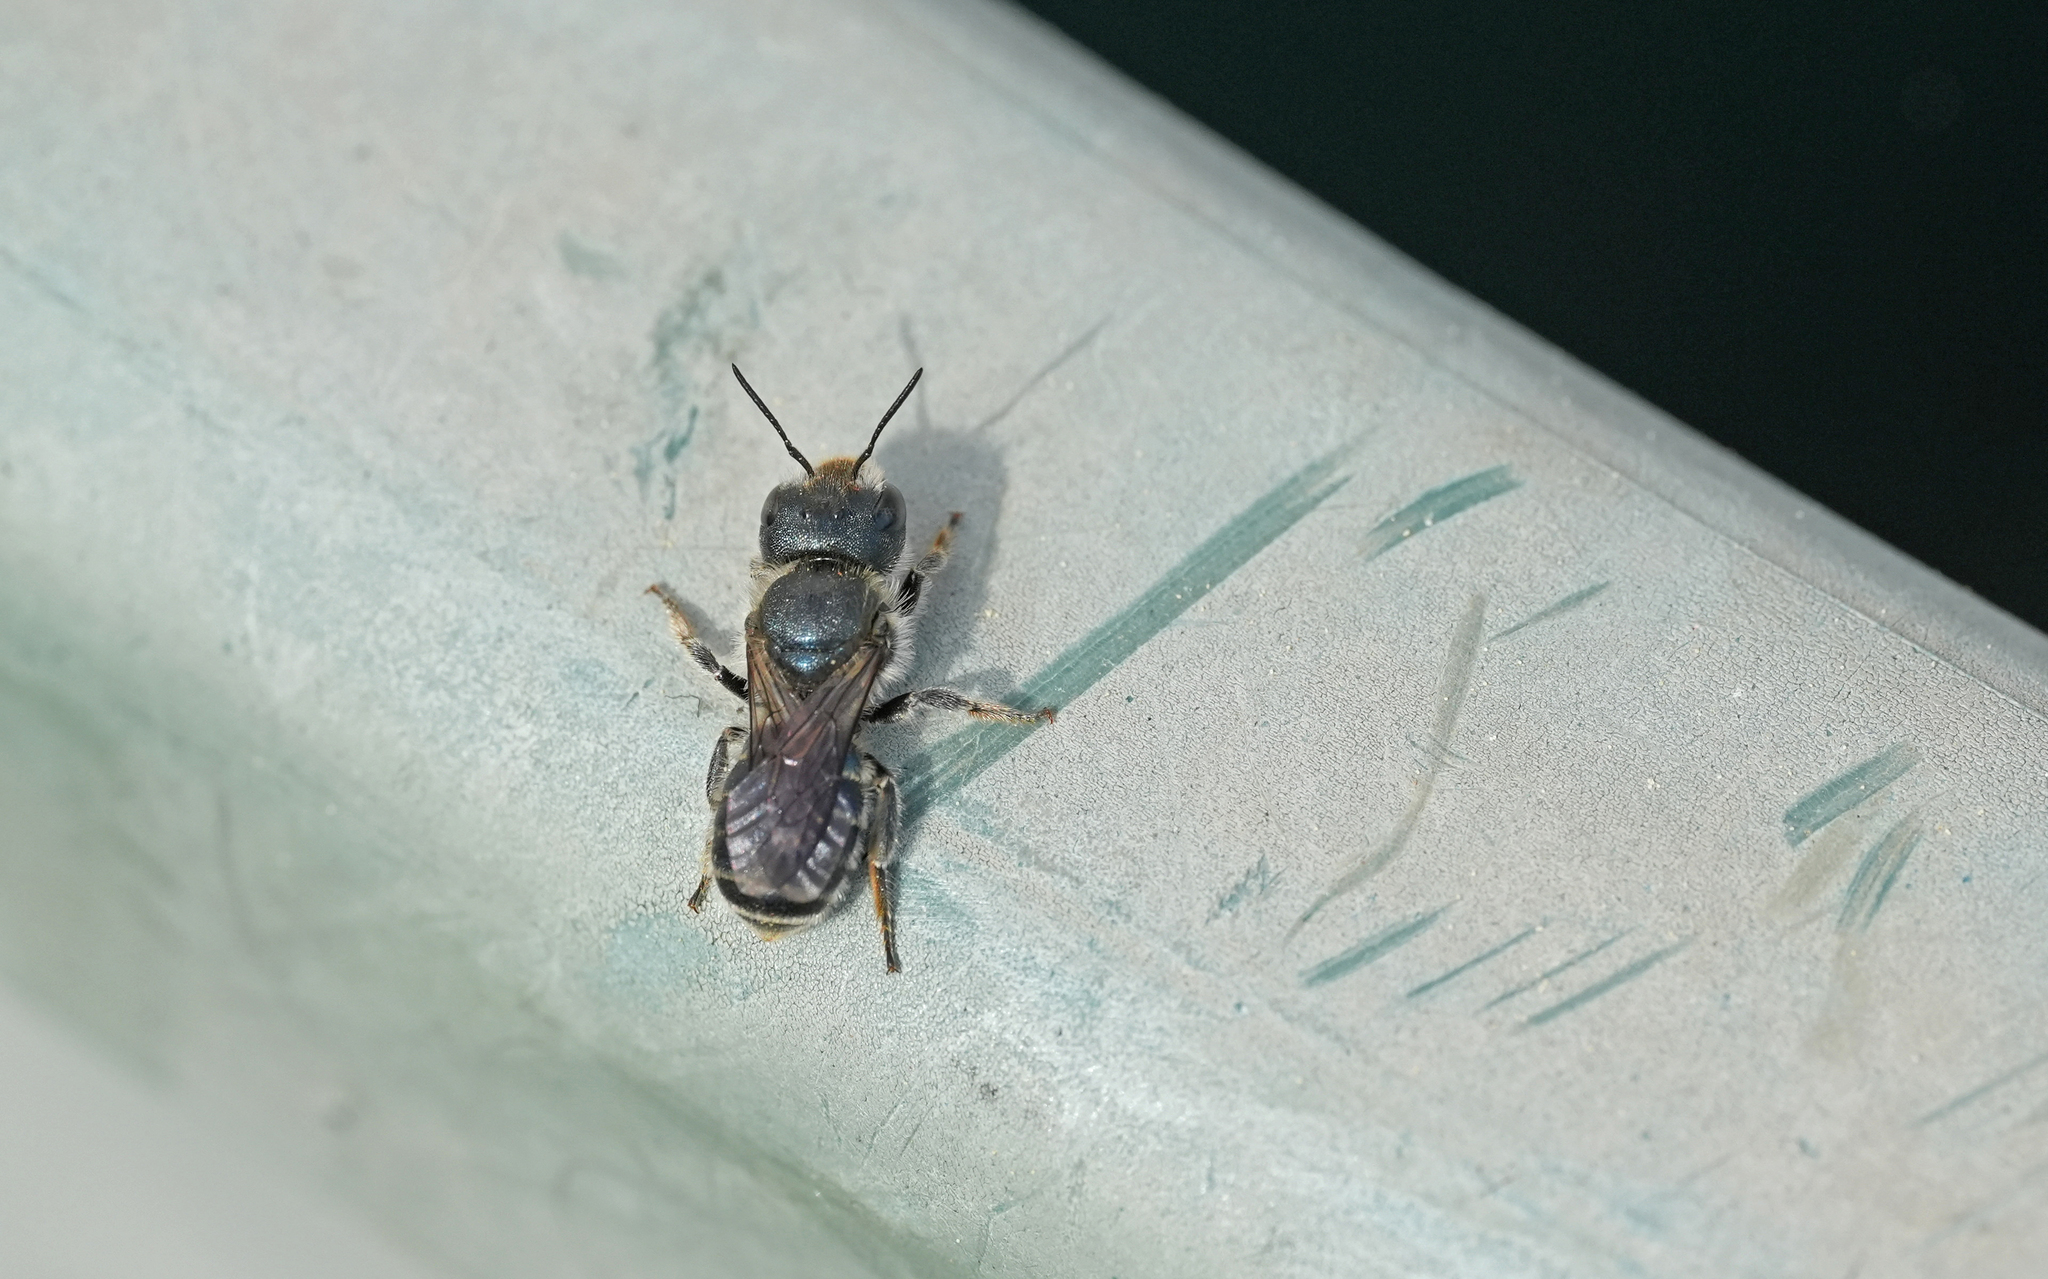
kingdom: Animalia
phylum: Arthropoda
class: Insecta
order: Hymenoptera
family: Megachilidae
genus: Osmia
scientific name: Osmia caerulescens
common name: Blue mason bee
